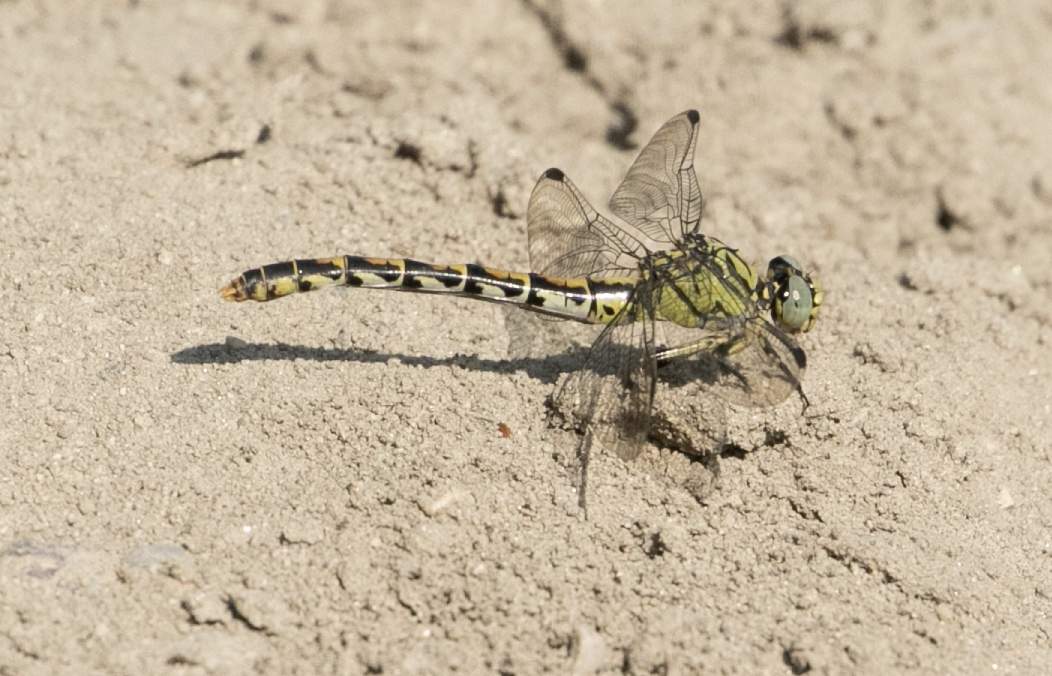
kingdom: Animalia
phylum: Arthropoda
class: Insecta
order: Odonata
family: Gomphidae
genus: Onychogomphus
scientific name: Onychogomphus forcipatus
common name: Small pincertail
